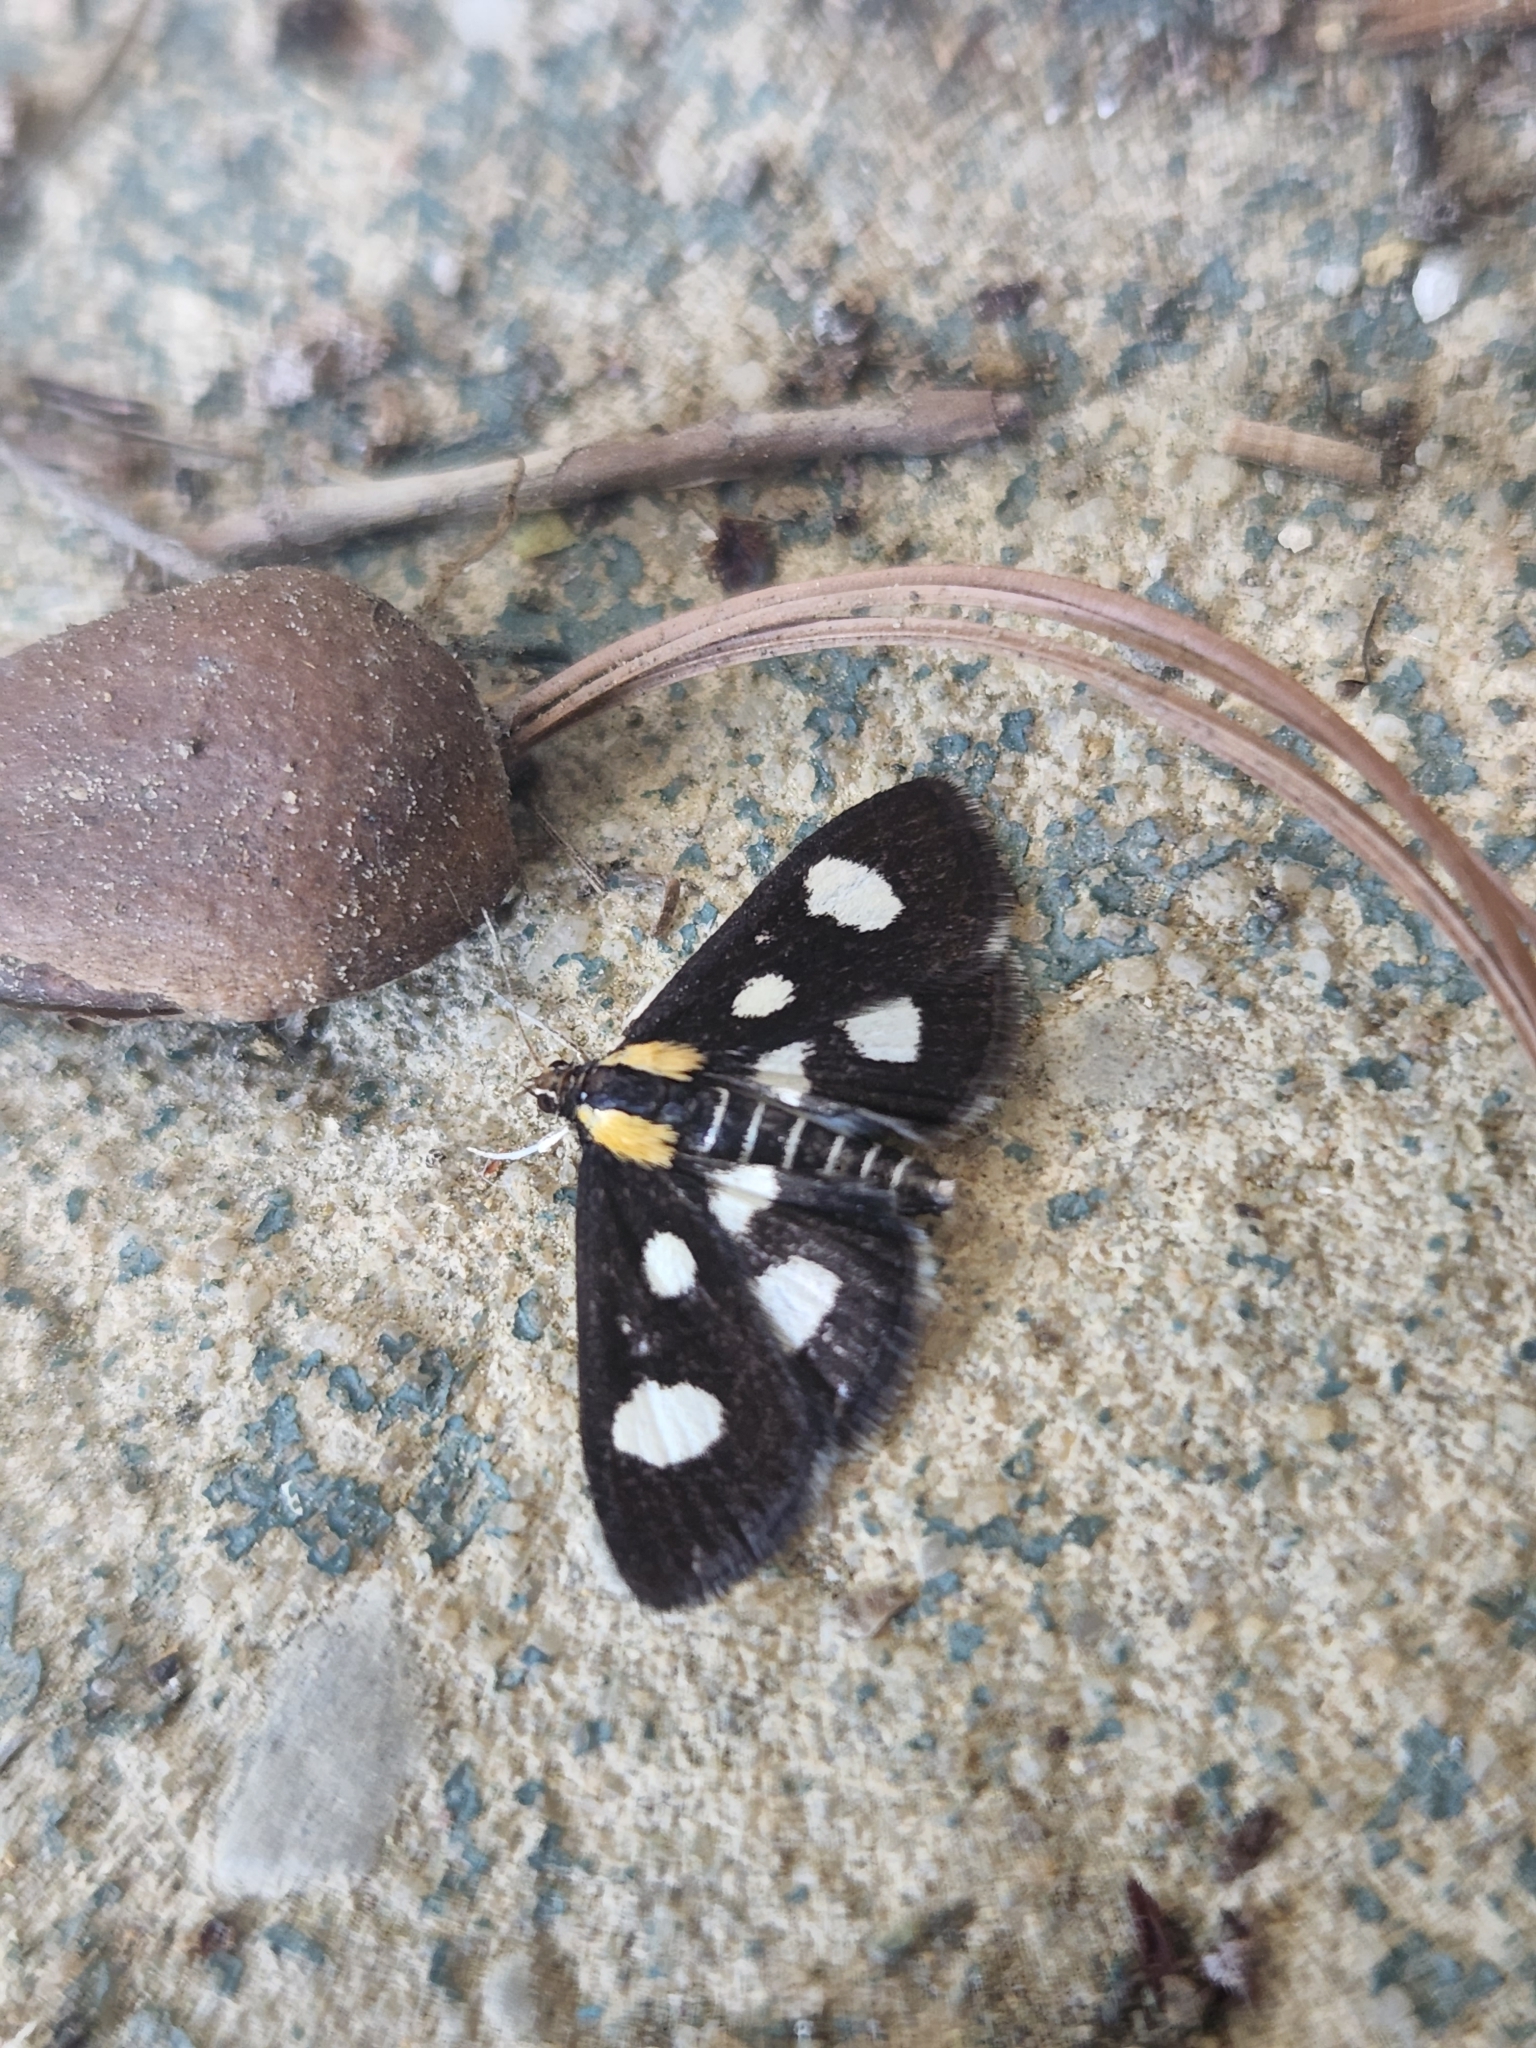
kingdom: Animalia
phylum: Arthropoda
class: Insecta
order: Lepidoptera
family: Crambidae
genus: Anania
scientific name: Anania funebris
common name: White-spotted sable moth
